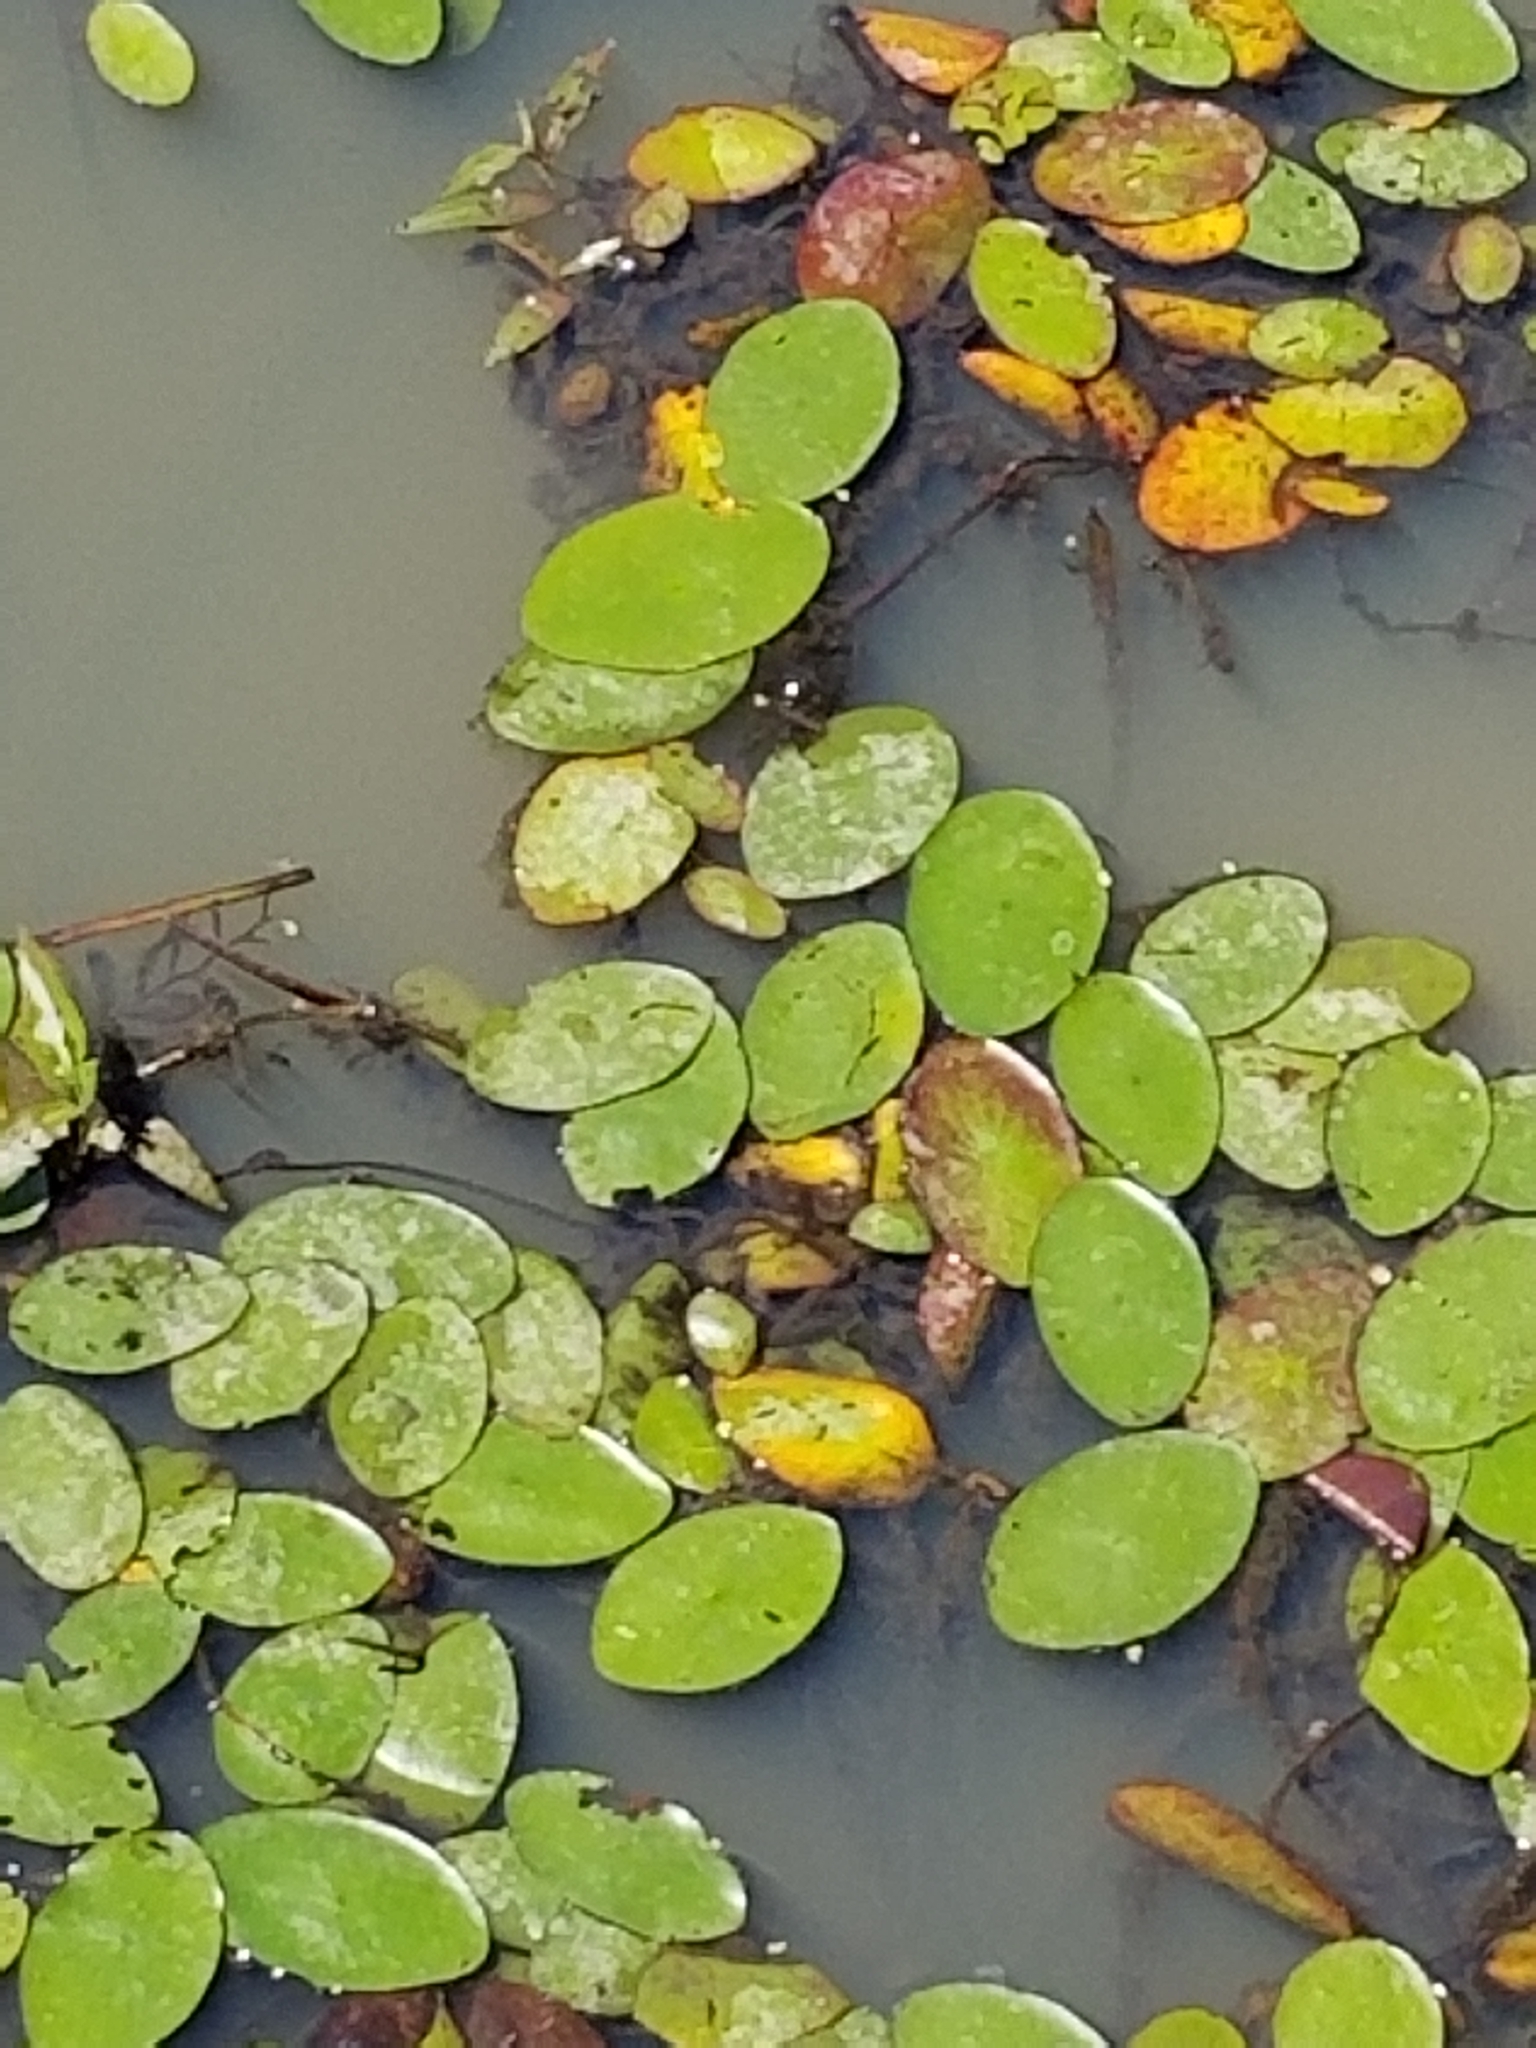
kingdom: Plantae
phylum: Tracheophyta
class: Magnoliopsida
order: Nymphaeales
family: Cabombaceae
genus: Brasenia
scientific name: Brasenia schreberi
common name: Water-shield
